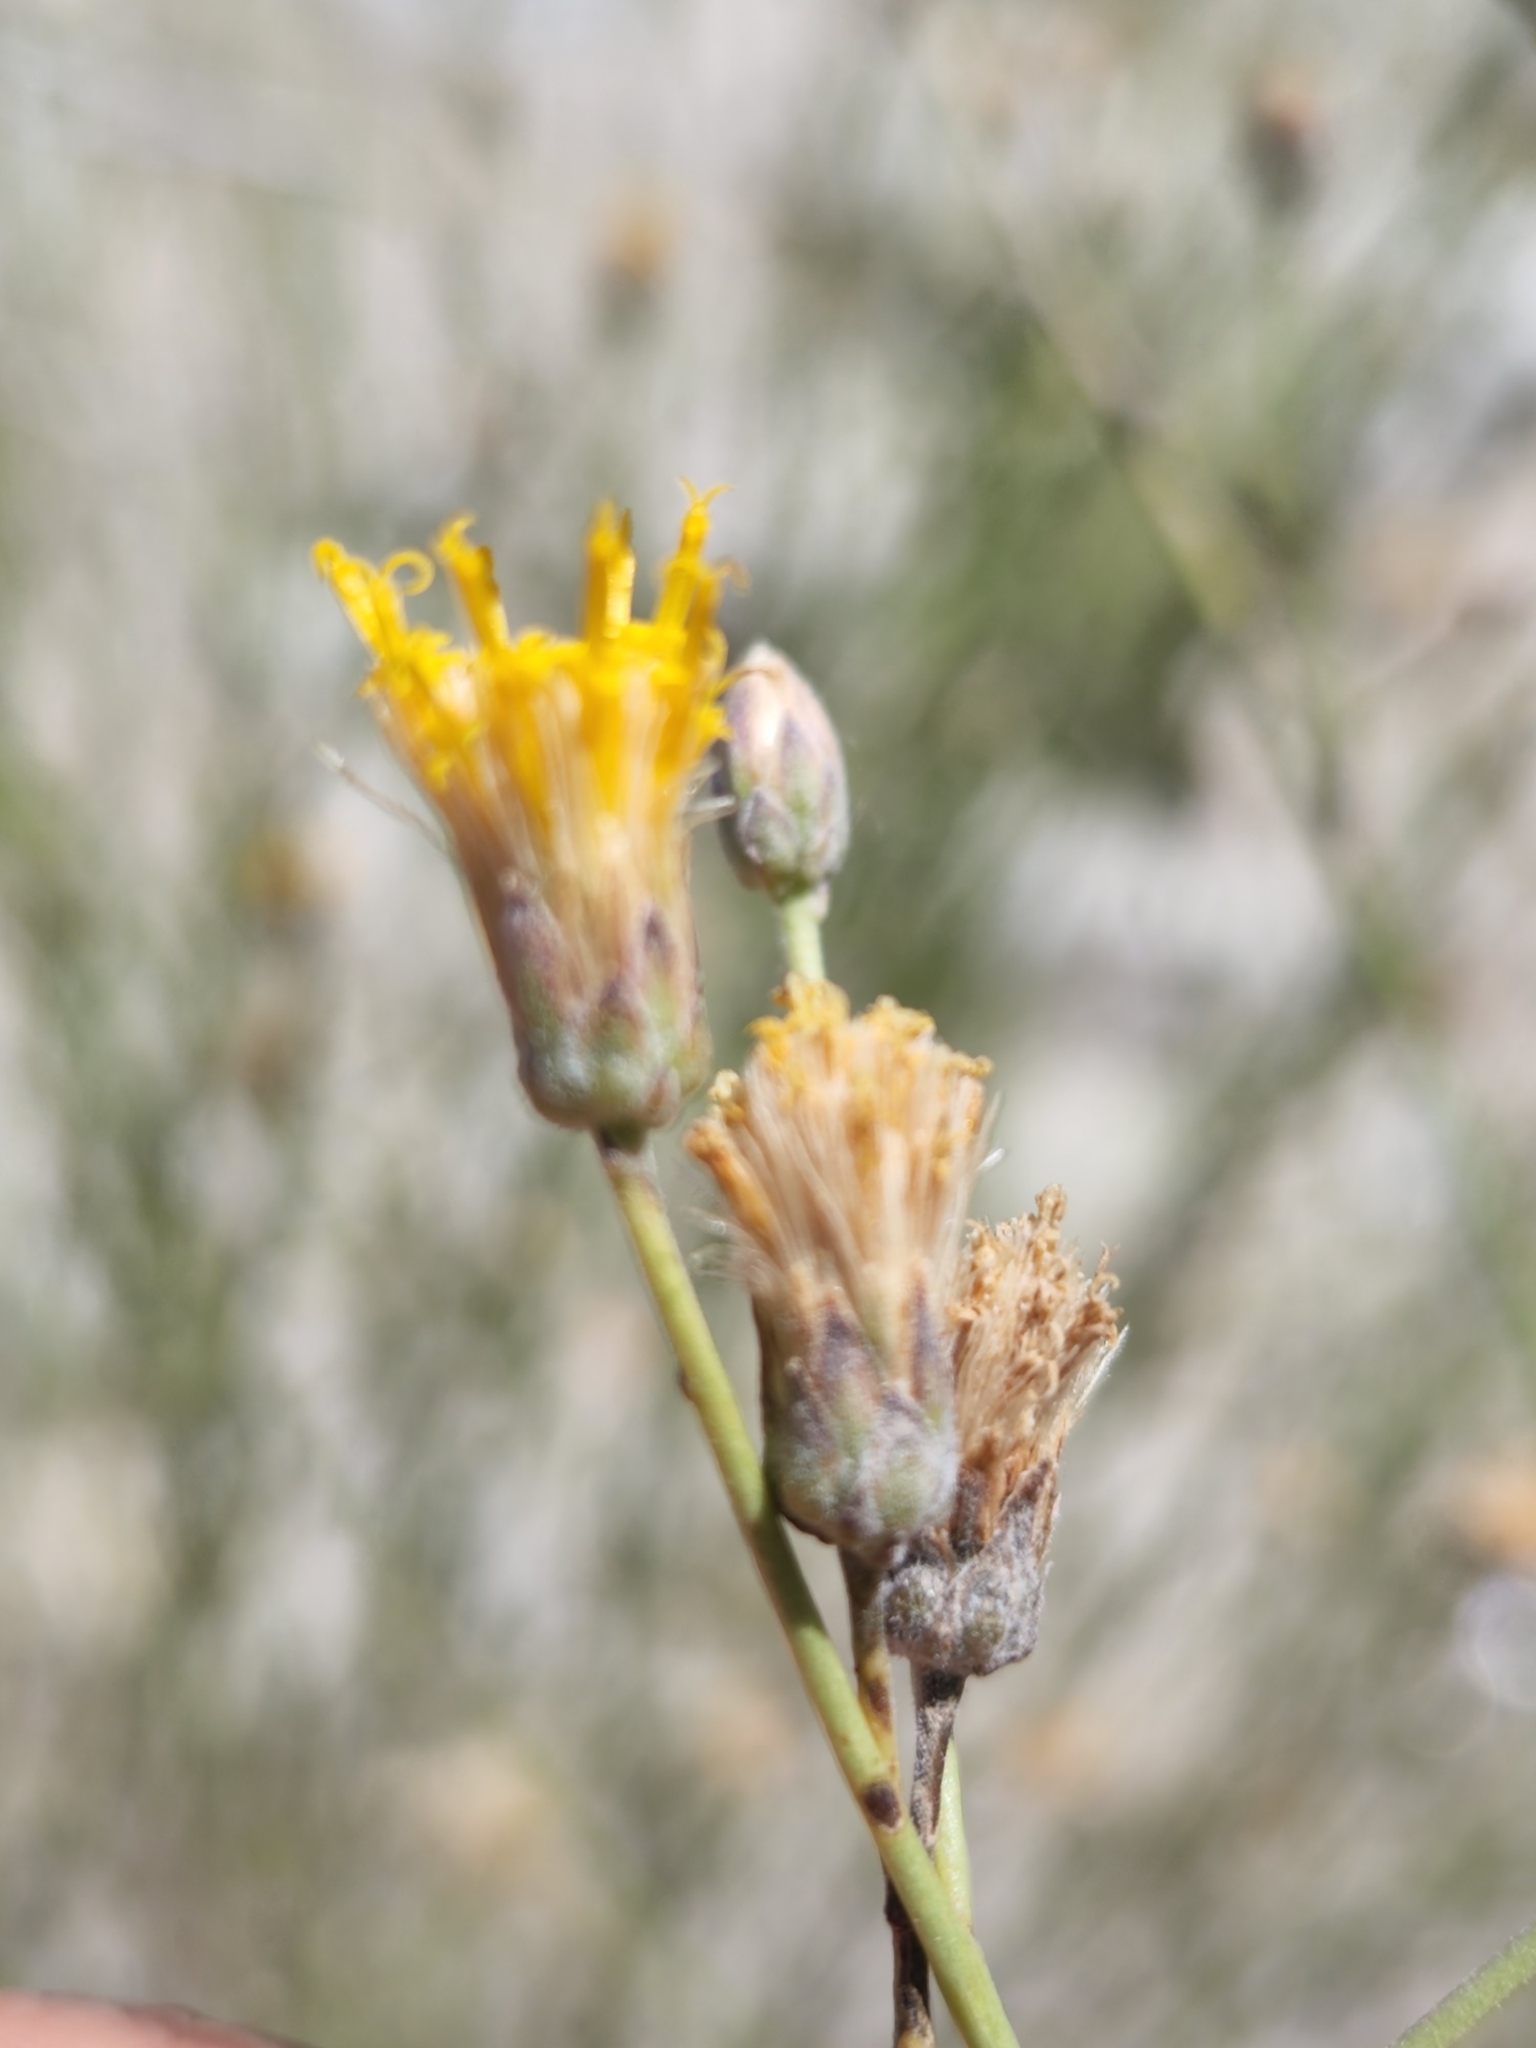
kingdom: Plantae
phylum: Tracheophyta
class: Magnoliopsida
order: Asterales
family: Asteraceae
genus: Bebbia
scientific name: Bebbia juncea
